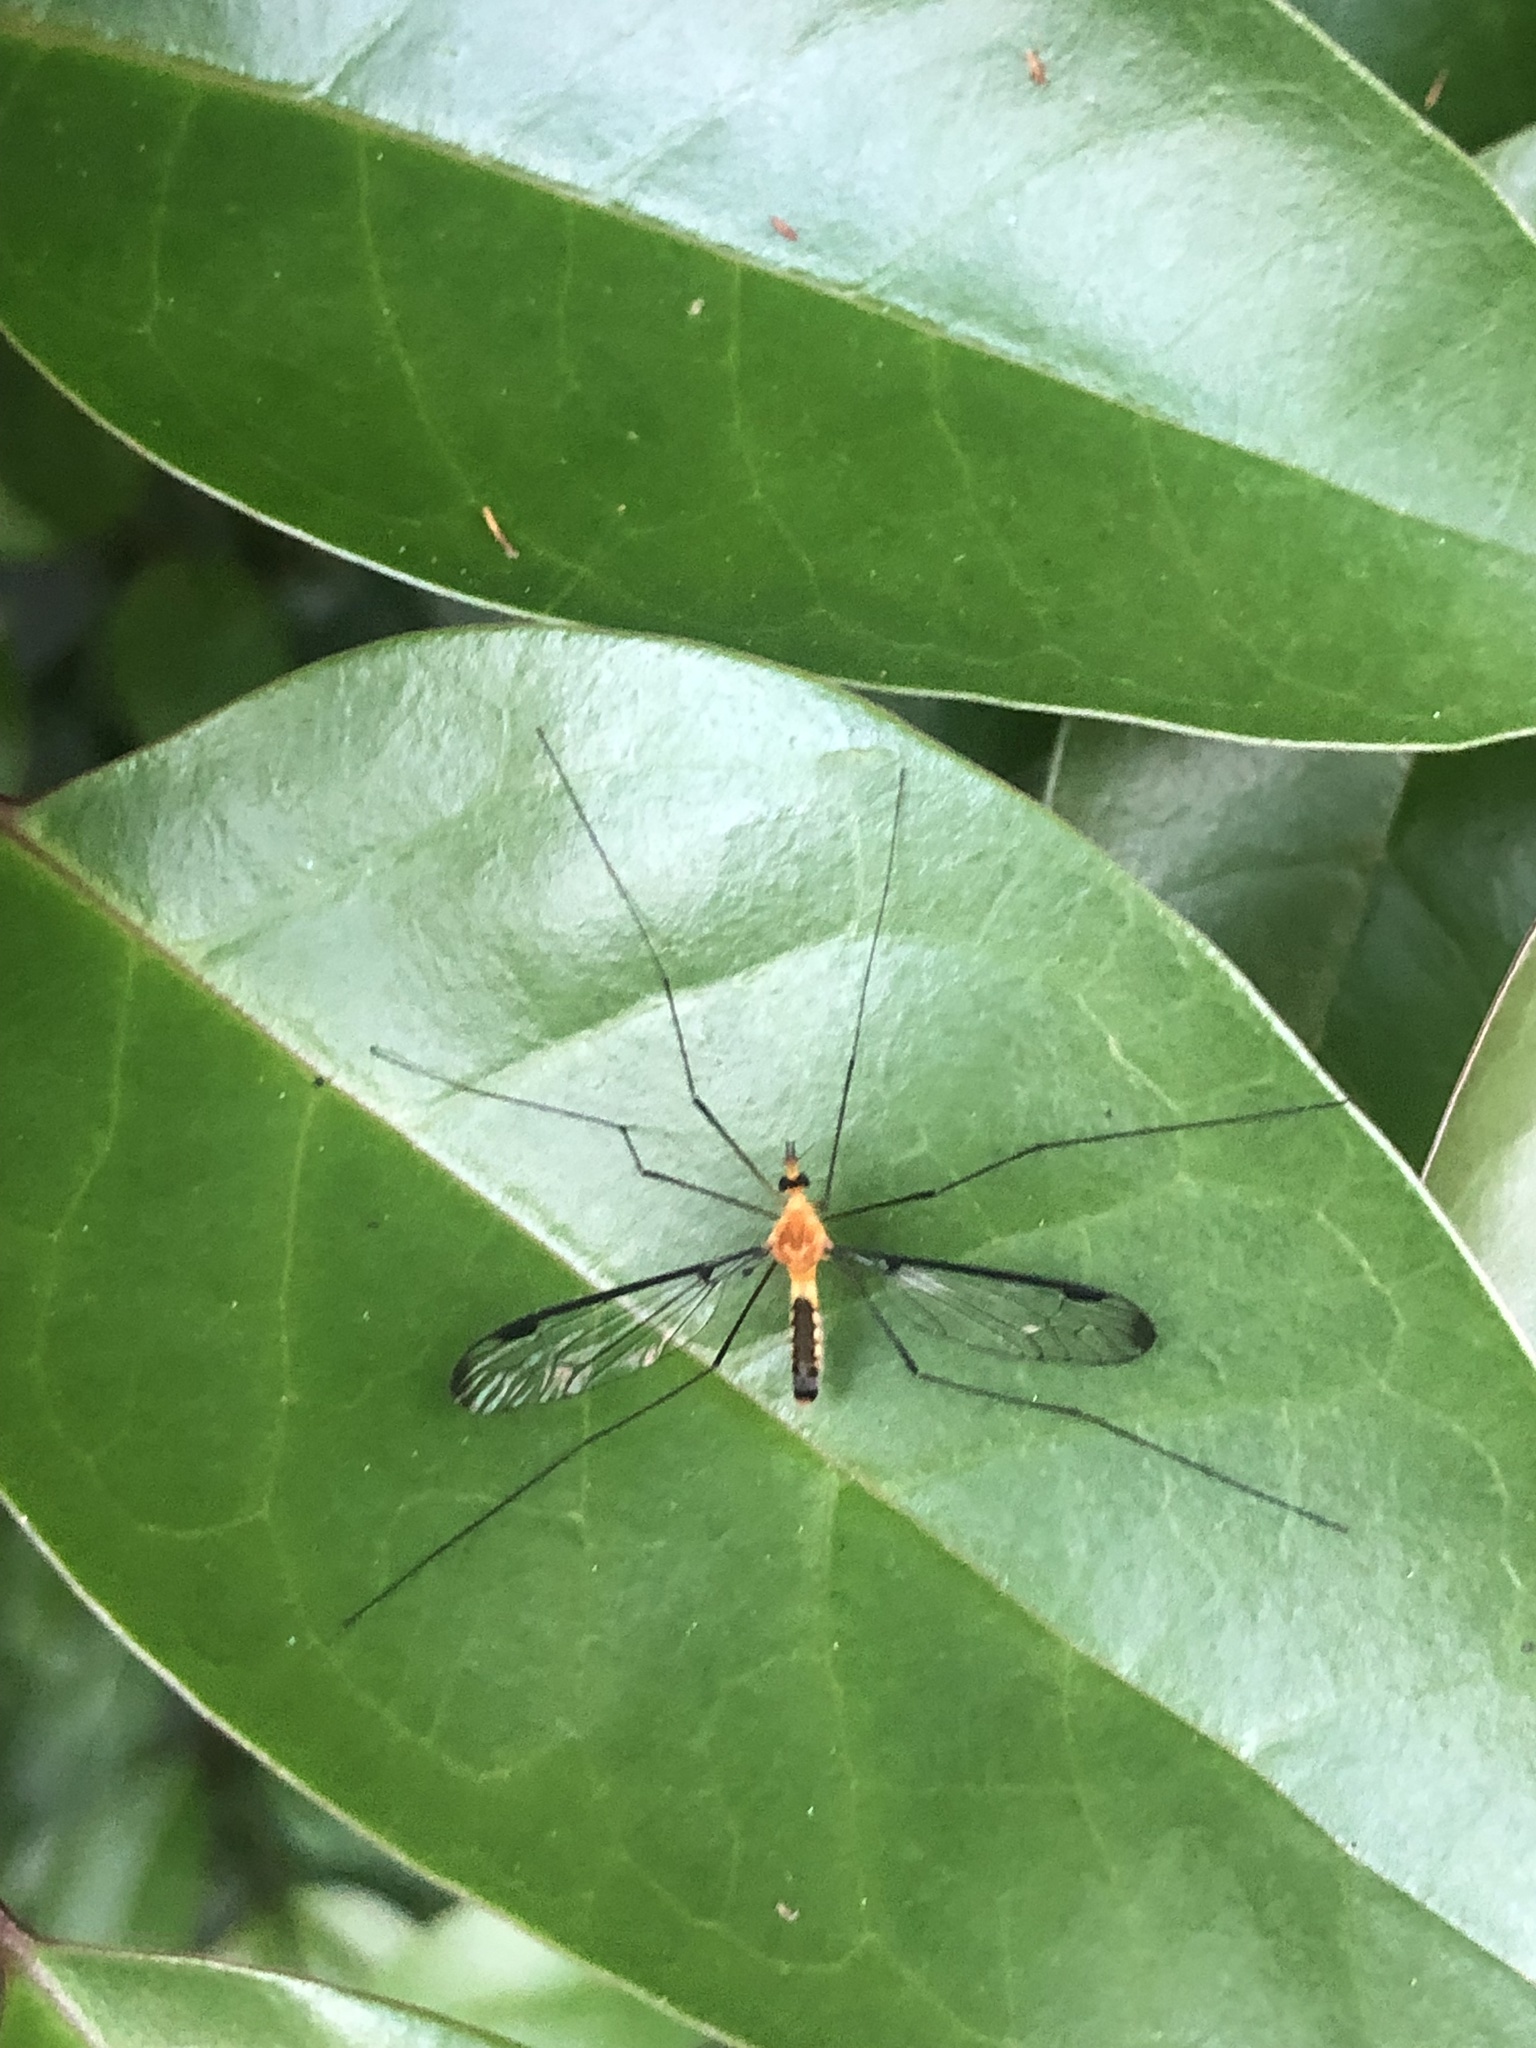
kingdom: Animalia
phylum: Arthropoda
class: Insecta
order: Diptera
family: Tipulidae
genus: Aurotipula
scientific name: Aurotipula
